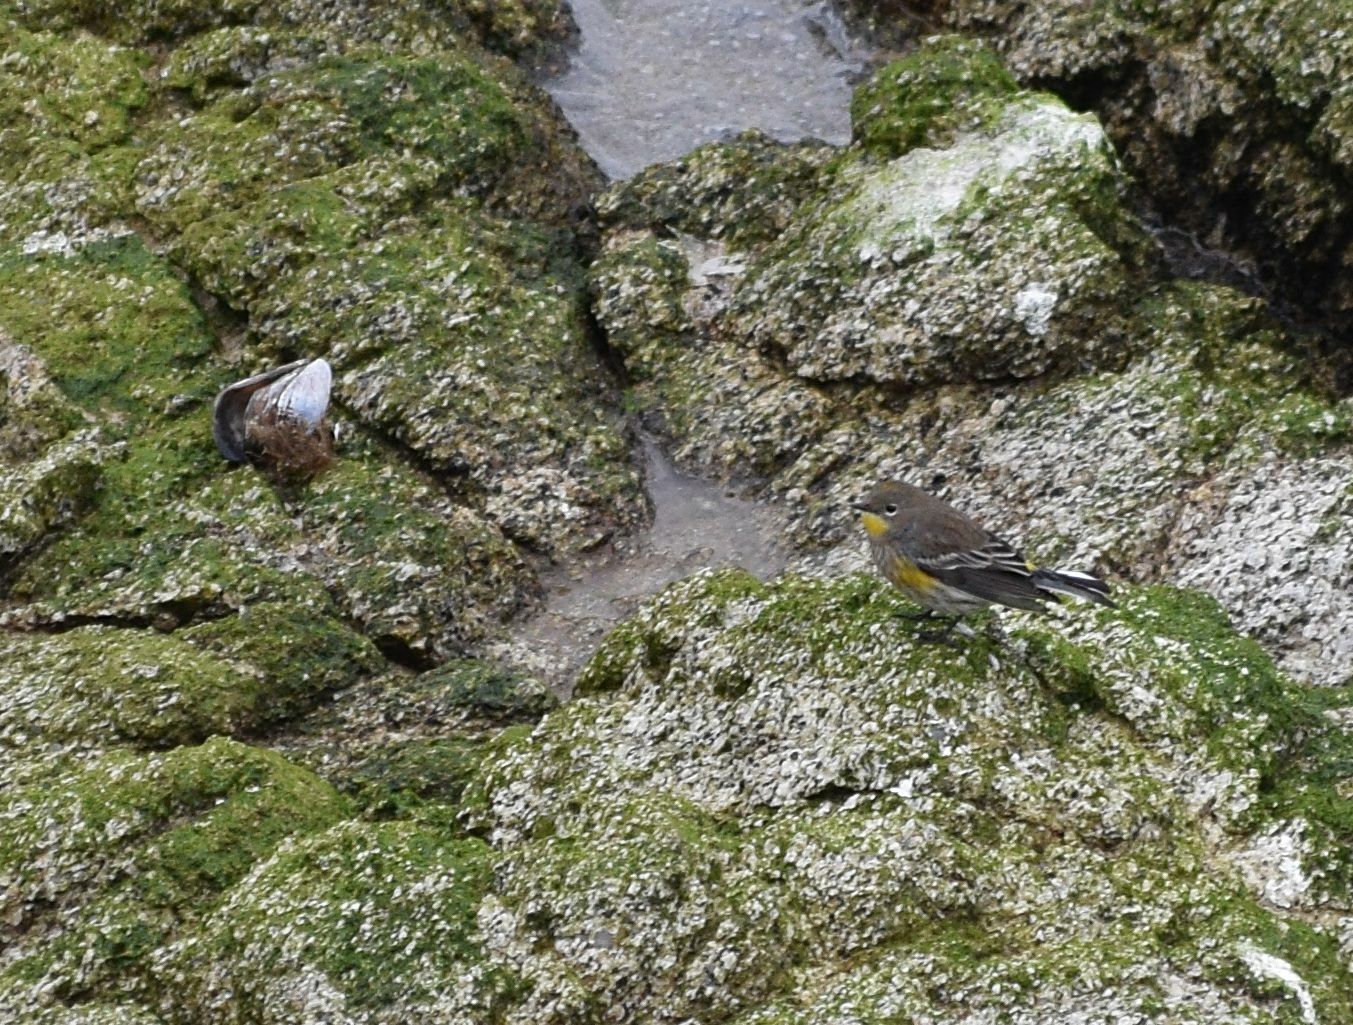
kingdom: Animalia
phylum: Chordata
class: Aves
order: Passeriformes
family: Parulidae
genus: Setophaga
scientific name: Setophaga coronata
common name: Myrtle warbler
